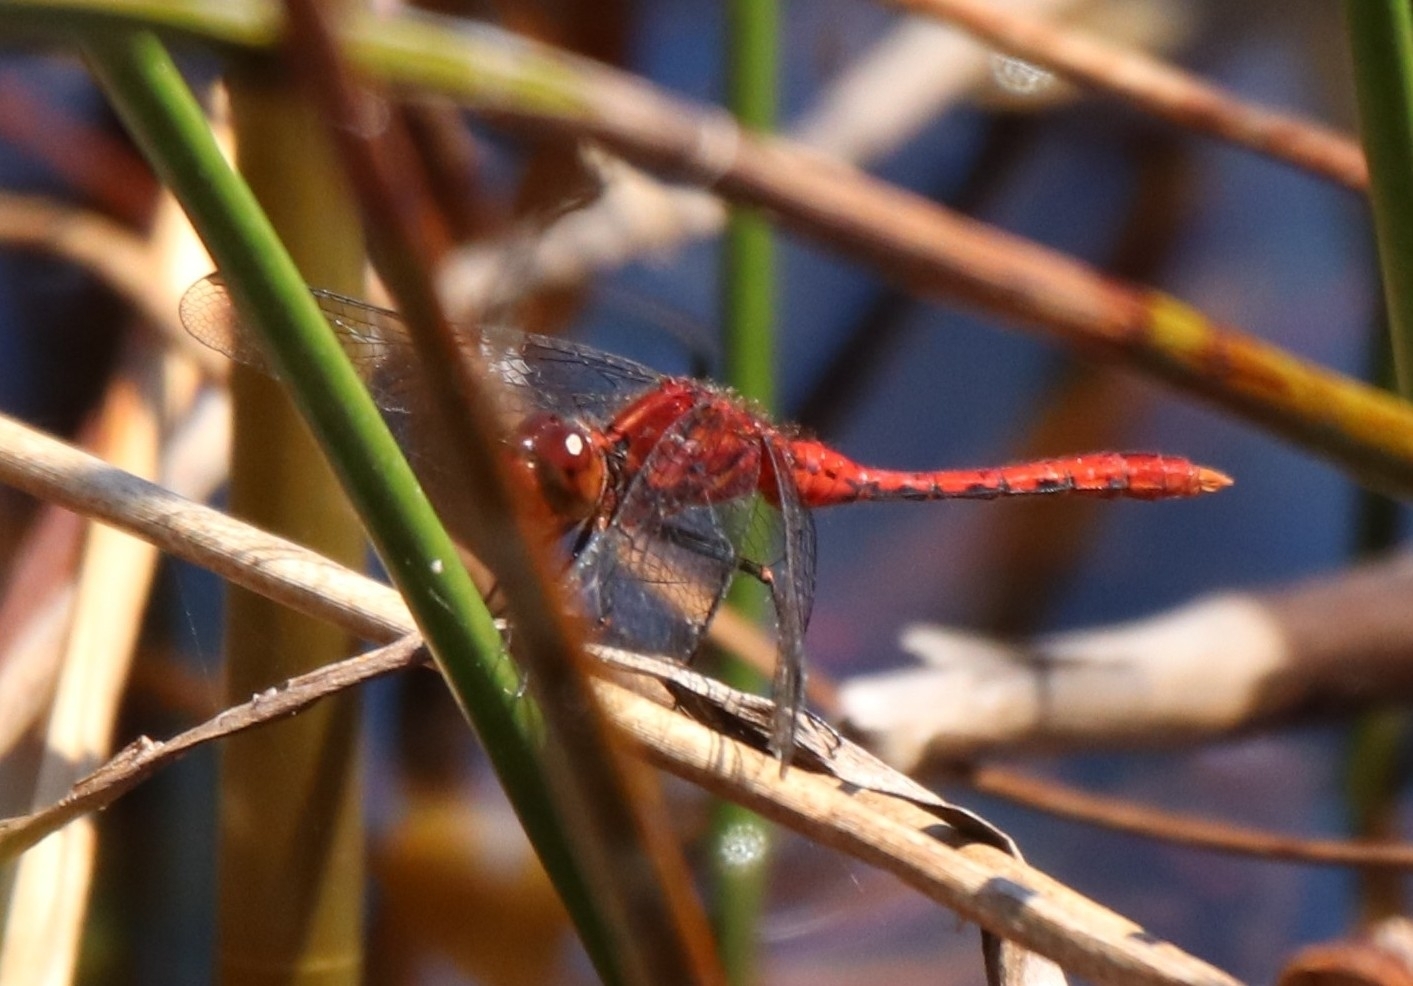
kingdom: Animalia
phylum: Arthropoda
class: Insecta
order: Odonata
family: Libellulidae
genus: Diplacodes
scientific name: Diplacodes bipunctata
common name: Red percher dragonfly
